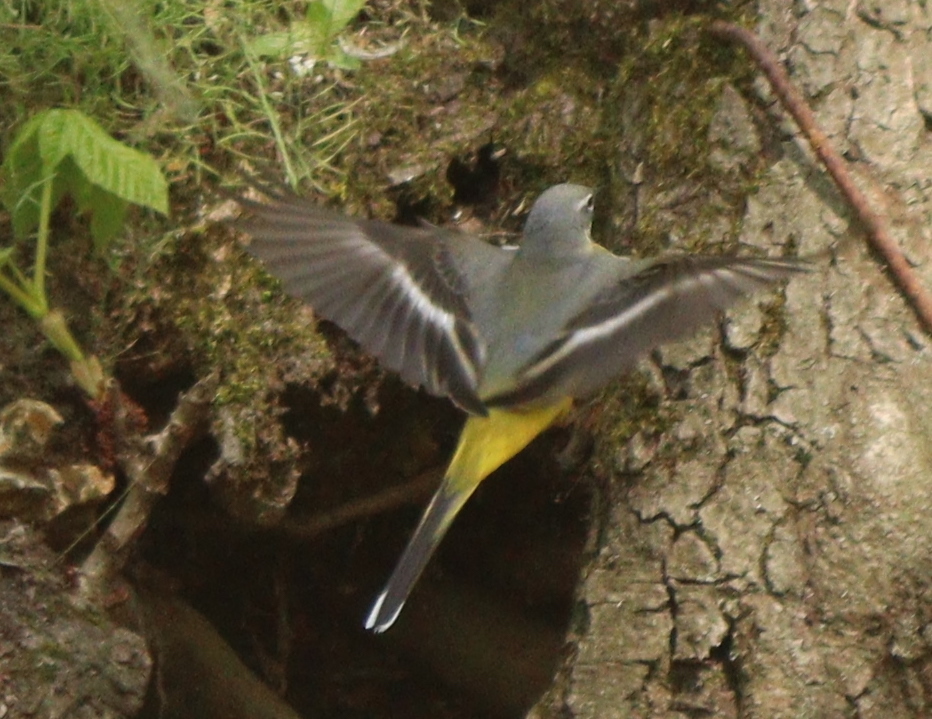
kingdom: Animalia
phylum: Chordata
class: Aves
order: Passeriformes
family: Motacillidae
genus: Motacilla
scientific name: Motacilla cinerea
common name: Grey wagtail
